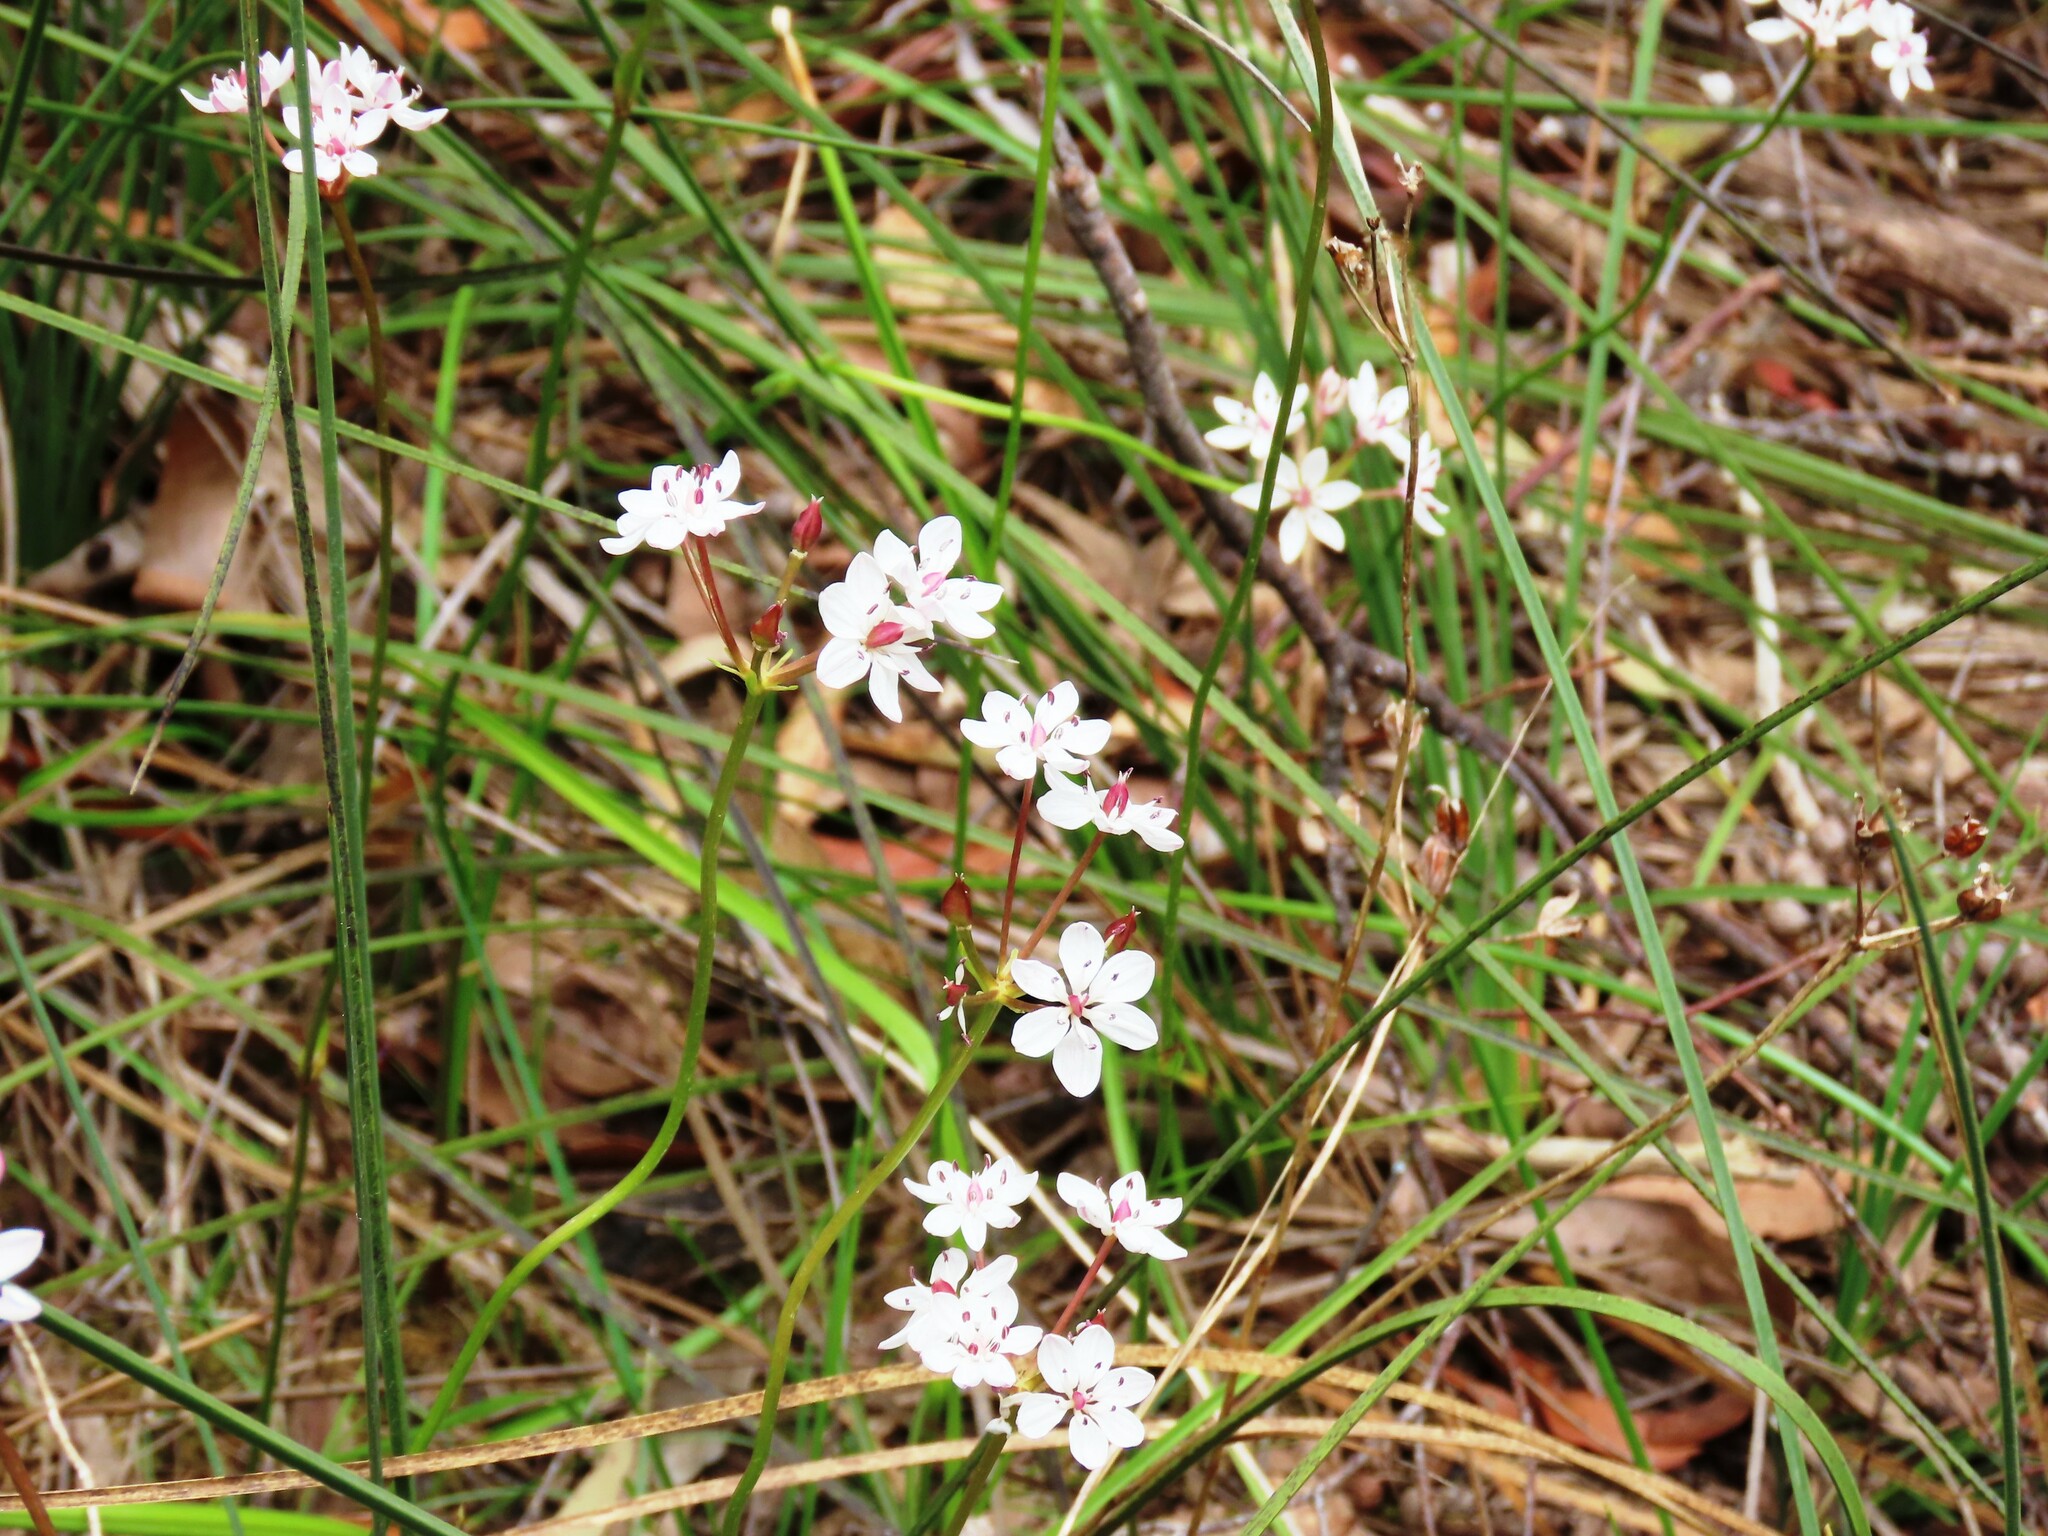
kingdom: Plantae
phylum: Tracheophyta
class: Liliopsida
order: Liliales
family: Colchicaceae
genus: Burchardia
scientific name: Burchardia umbellata
